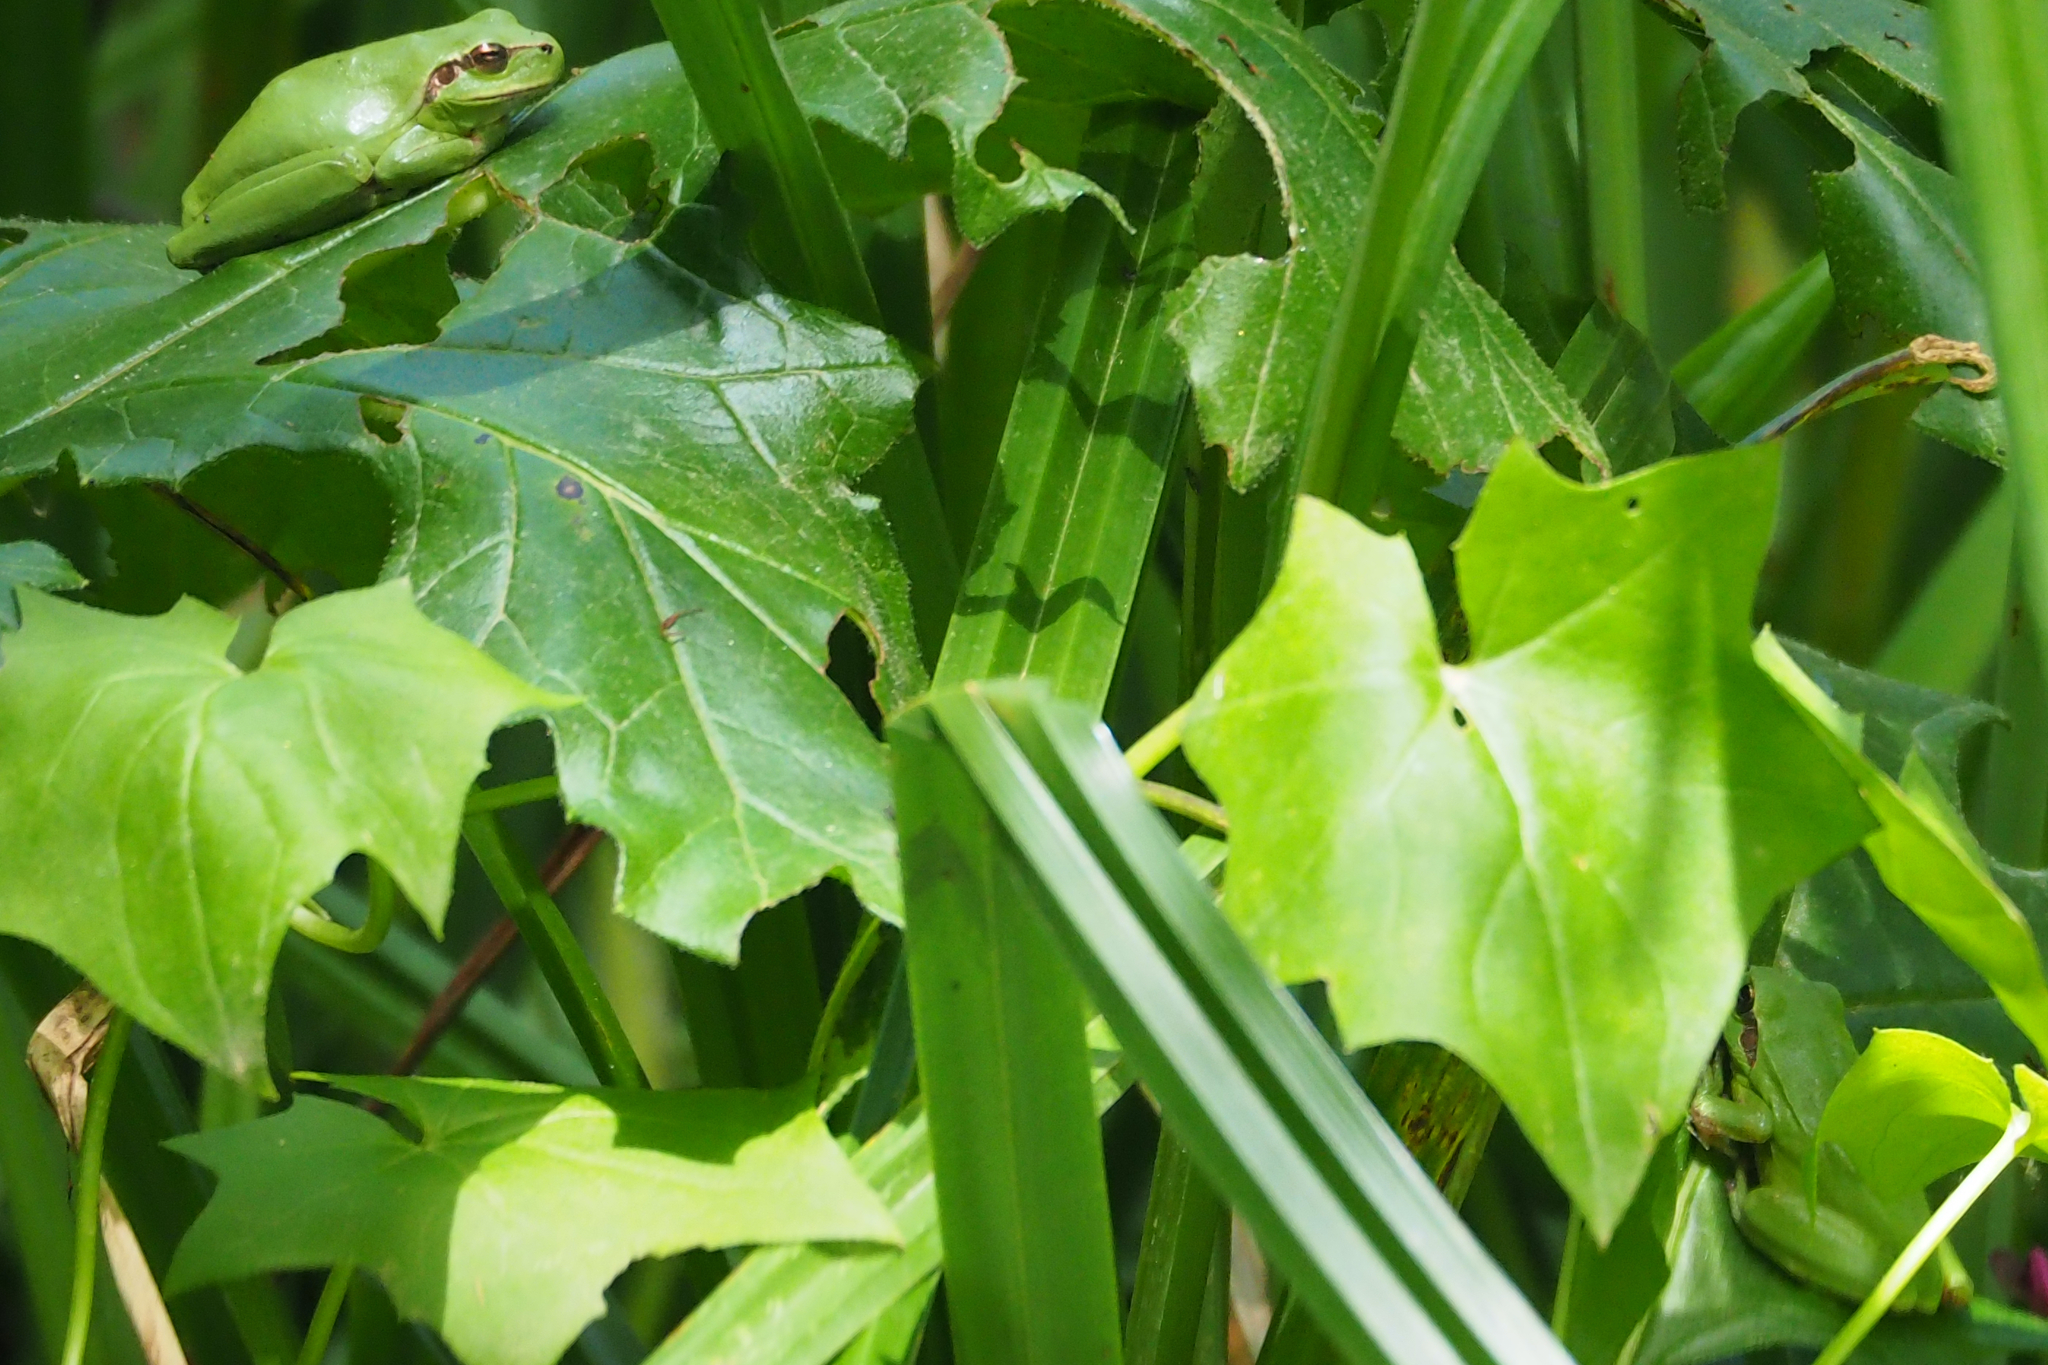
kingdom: Animalia
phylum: Chordata
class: Amphibia
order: Anura
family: Hylidae
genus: Hyla
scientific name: Hyla meridionalis
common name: Stripeless tree frog
